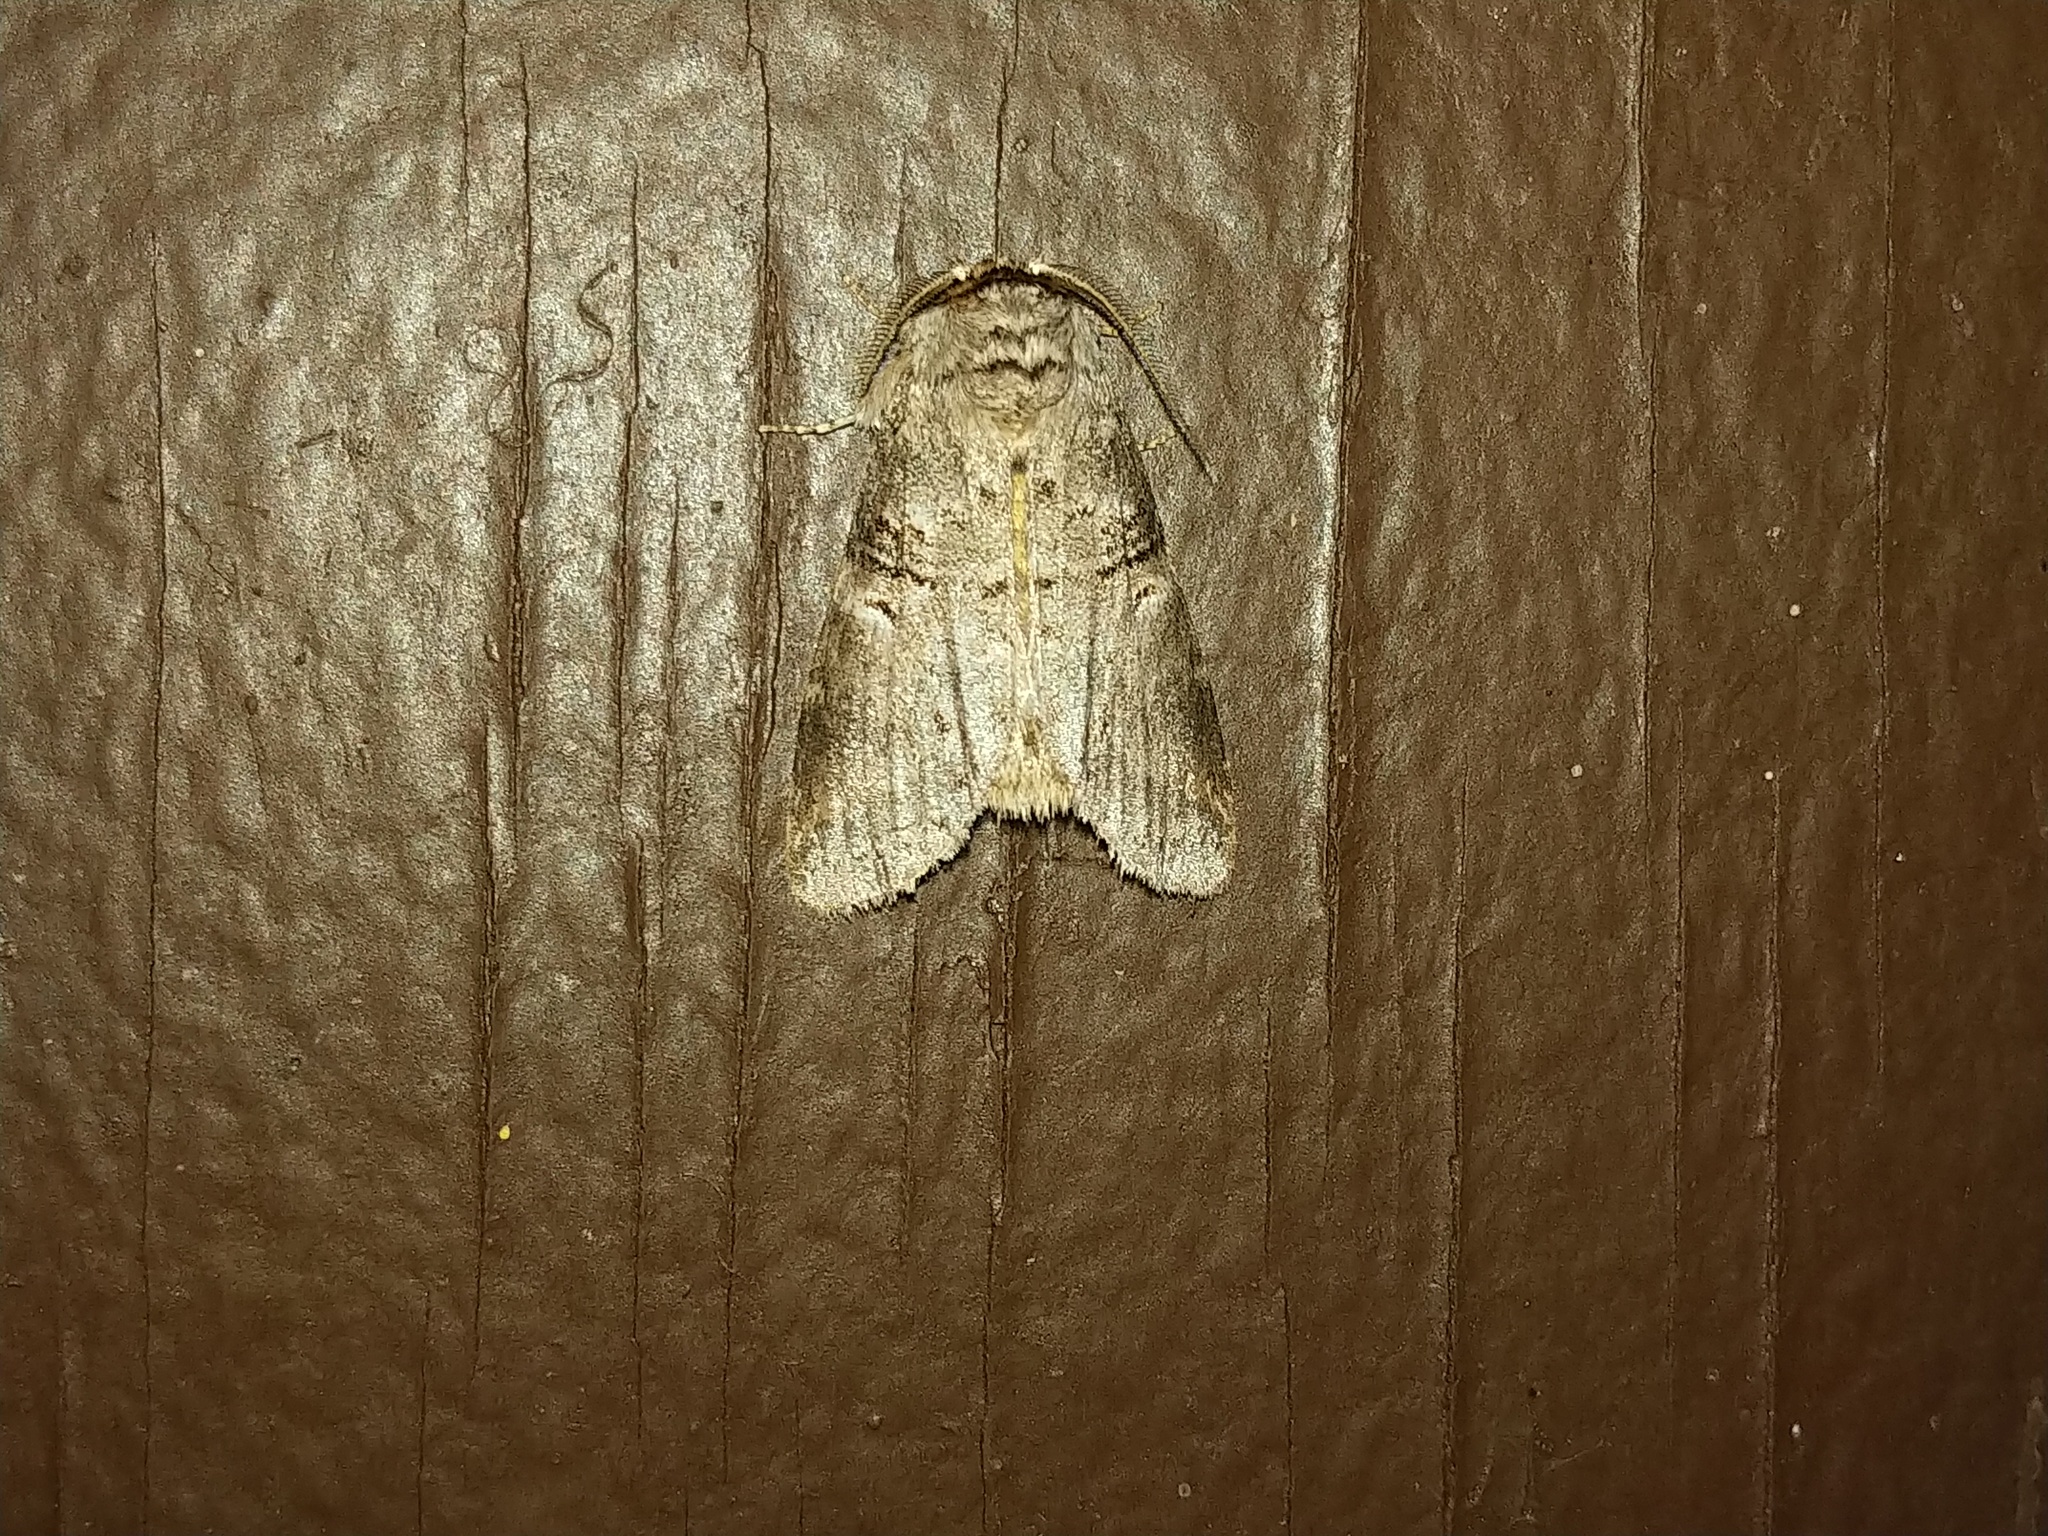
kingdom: Animalia
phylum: Arthropoda
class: Insecta
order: Lepidoptera
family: Notodontidae
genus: Ellida
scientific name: Ellida caniplaga
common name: Linden prominent
